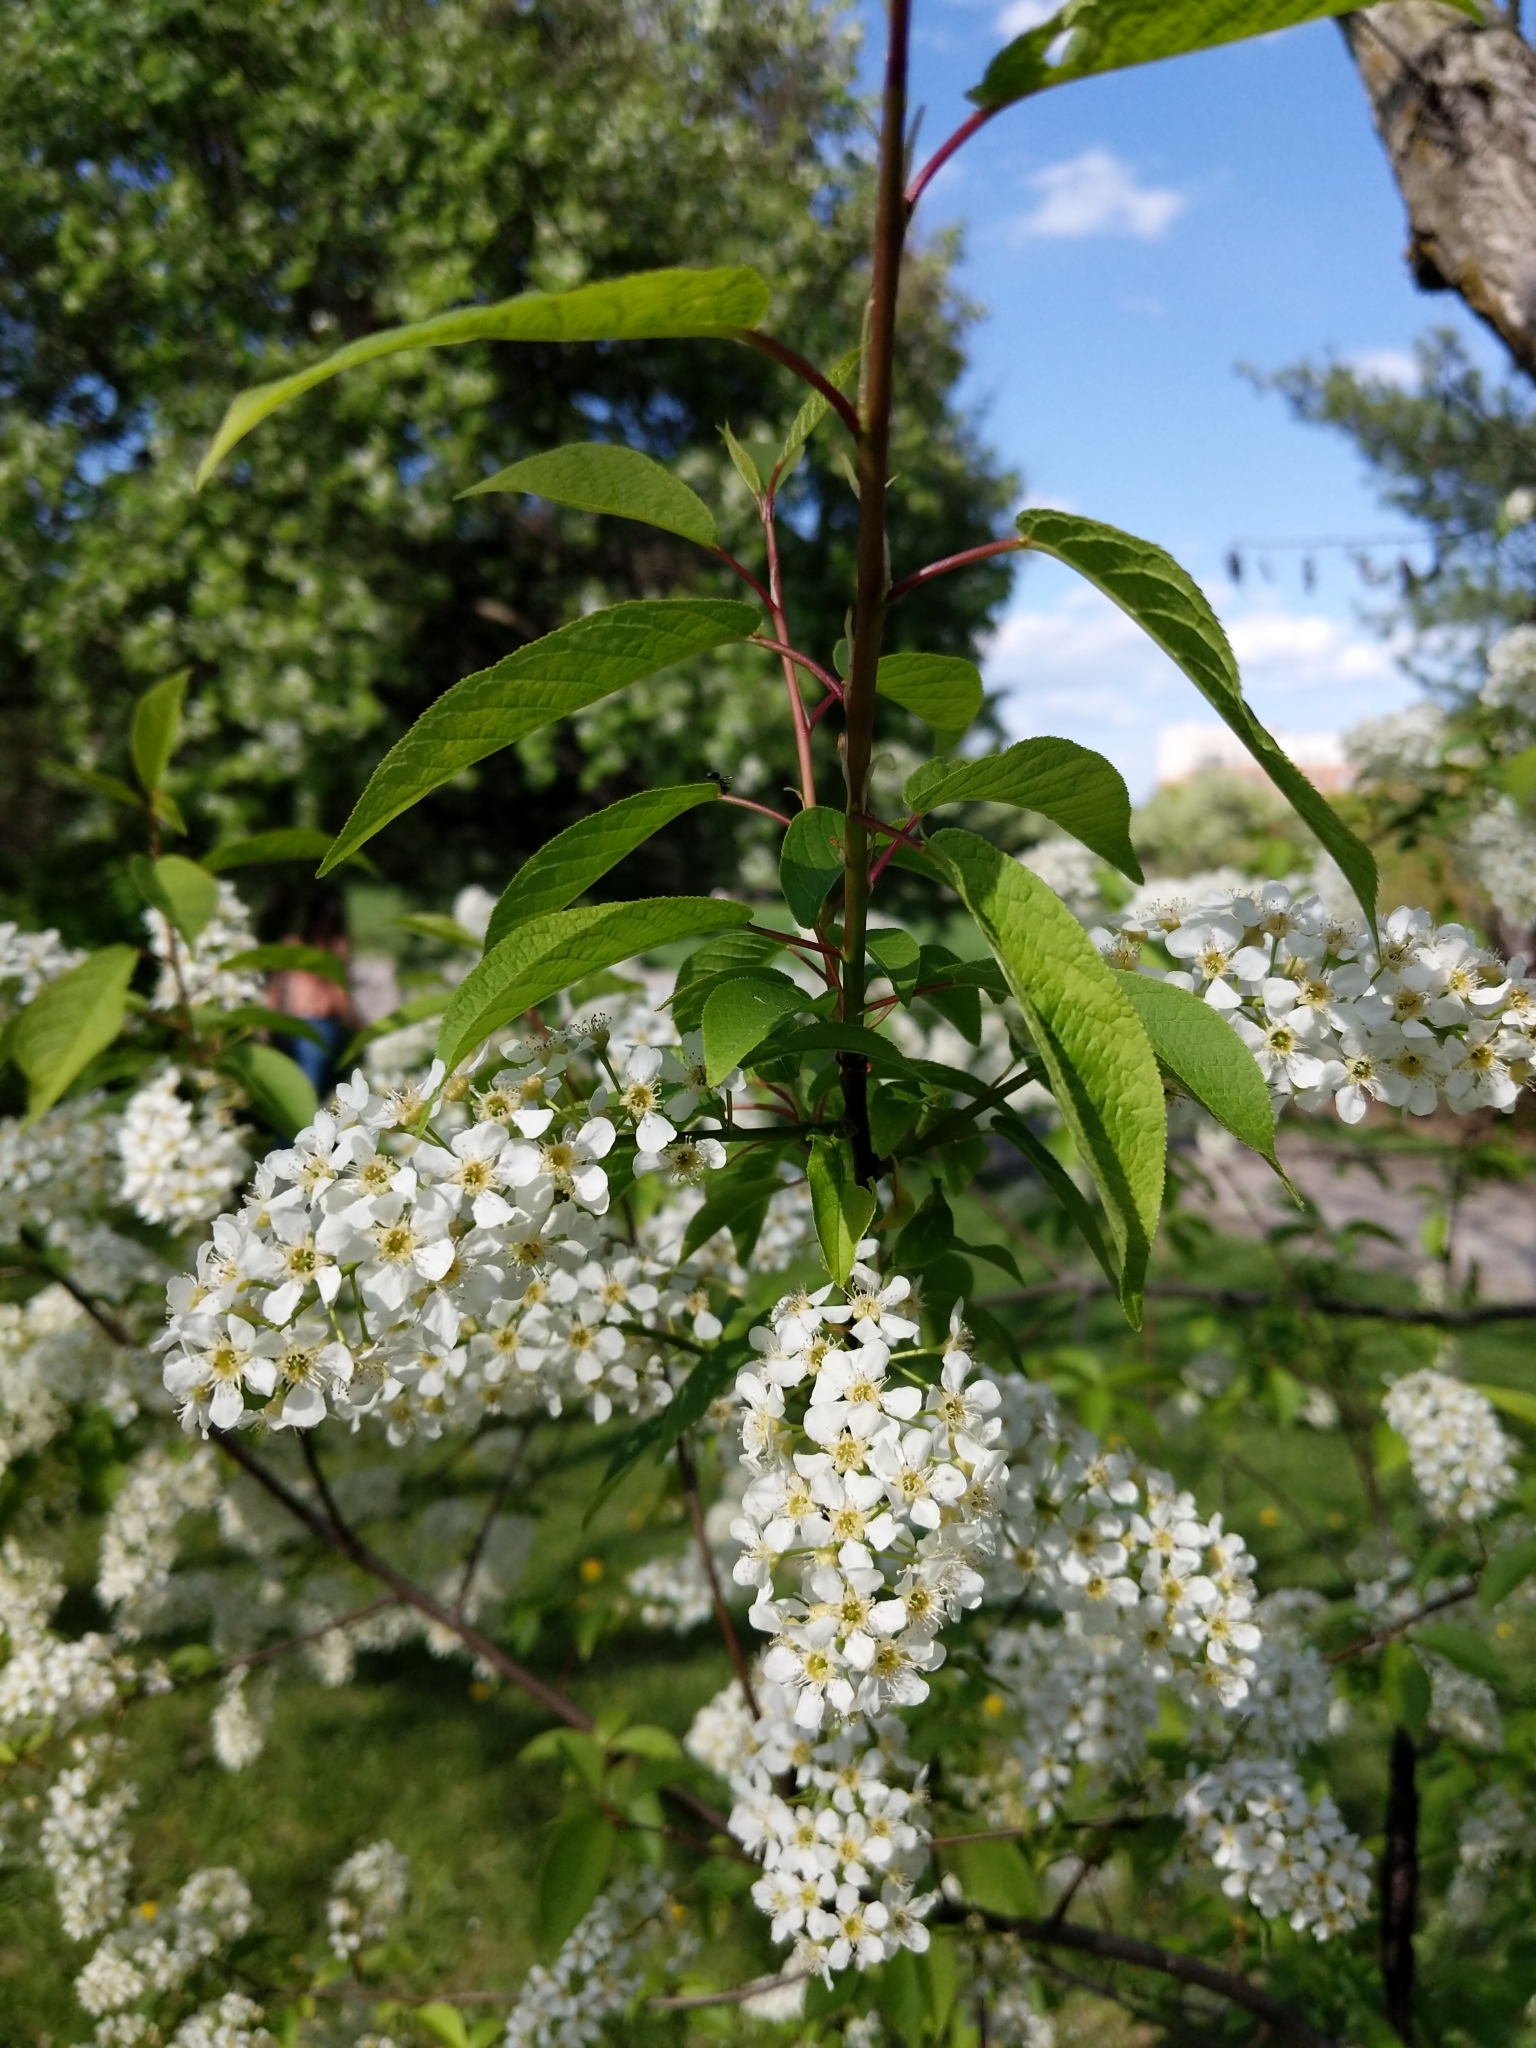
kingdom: Plantae
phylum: Tracheophyta
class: Magnoliopsida
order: Rosales
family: Rosaceae
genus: Prunus
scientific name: Prunus padus
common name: Bird cherry
